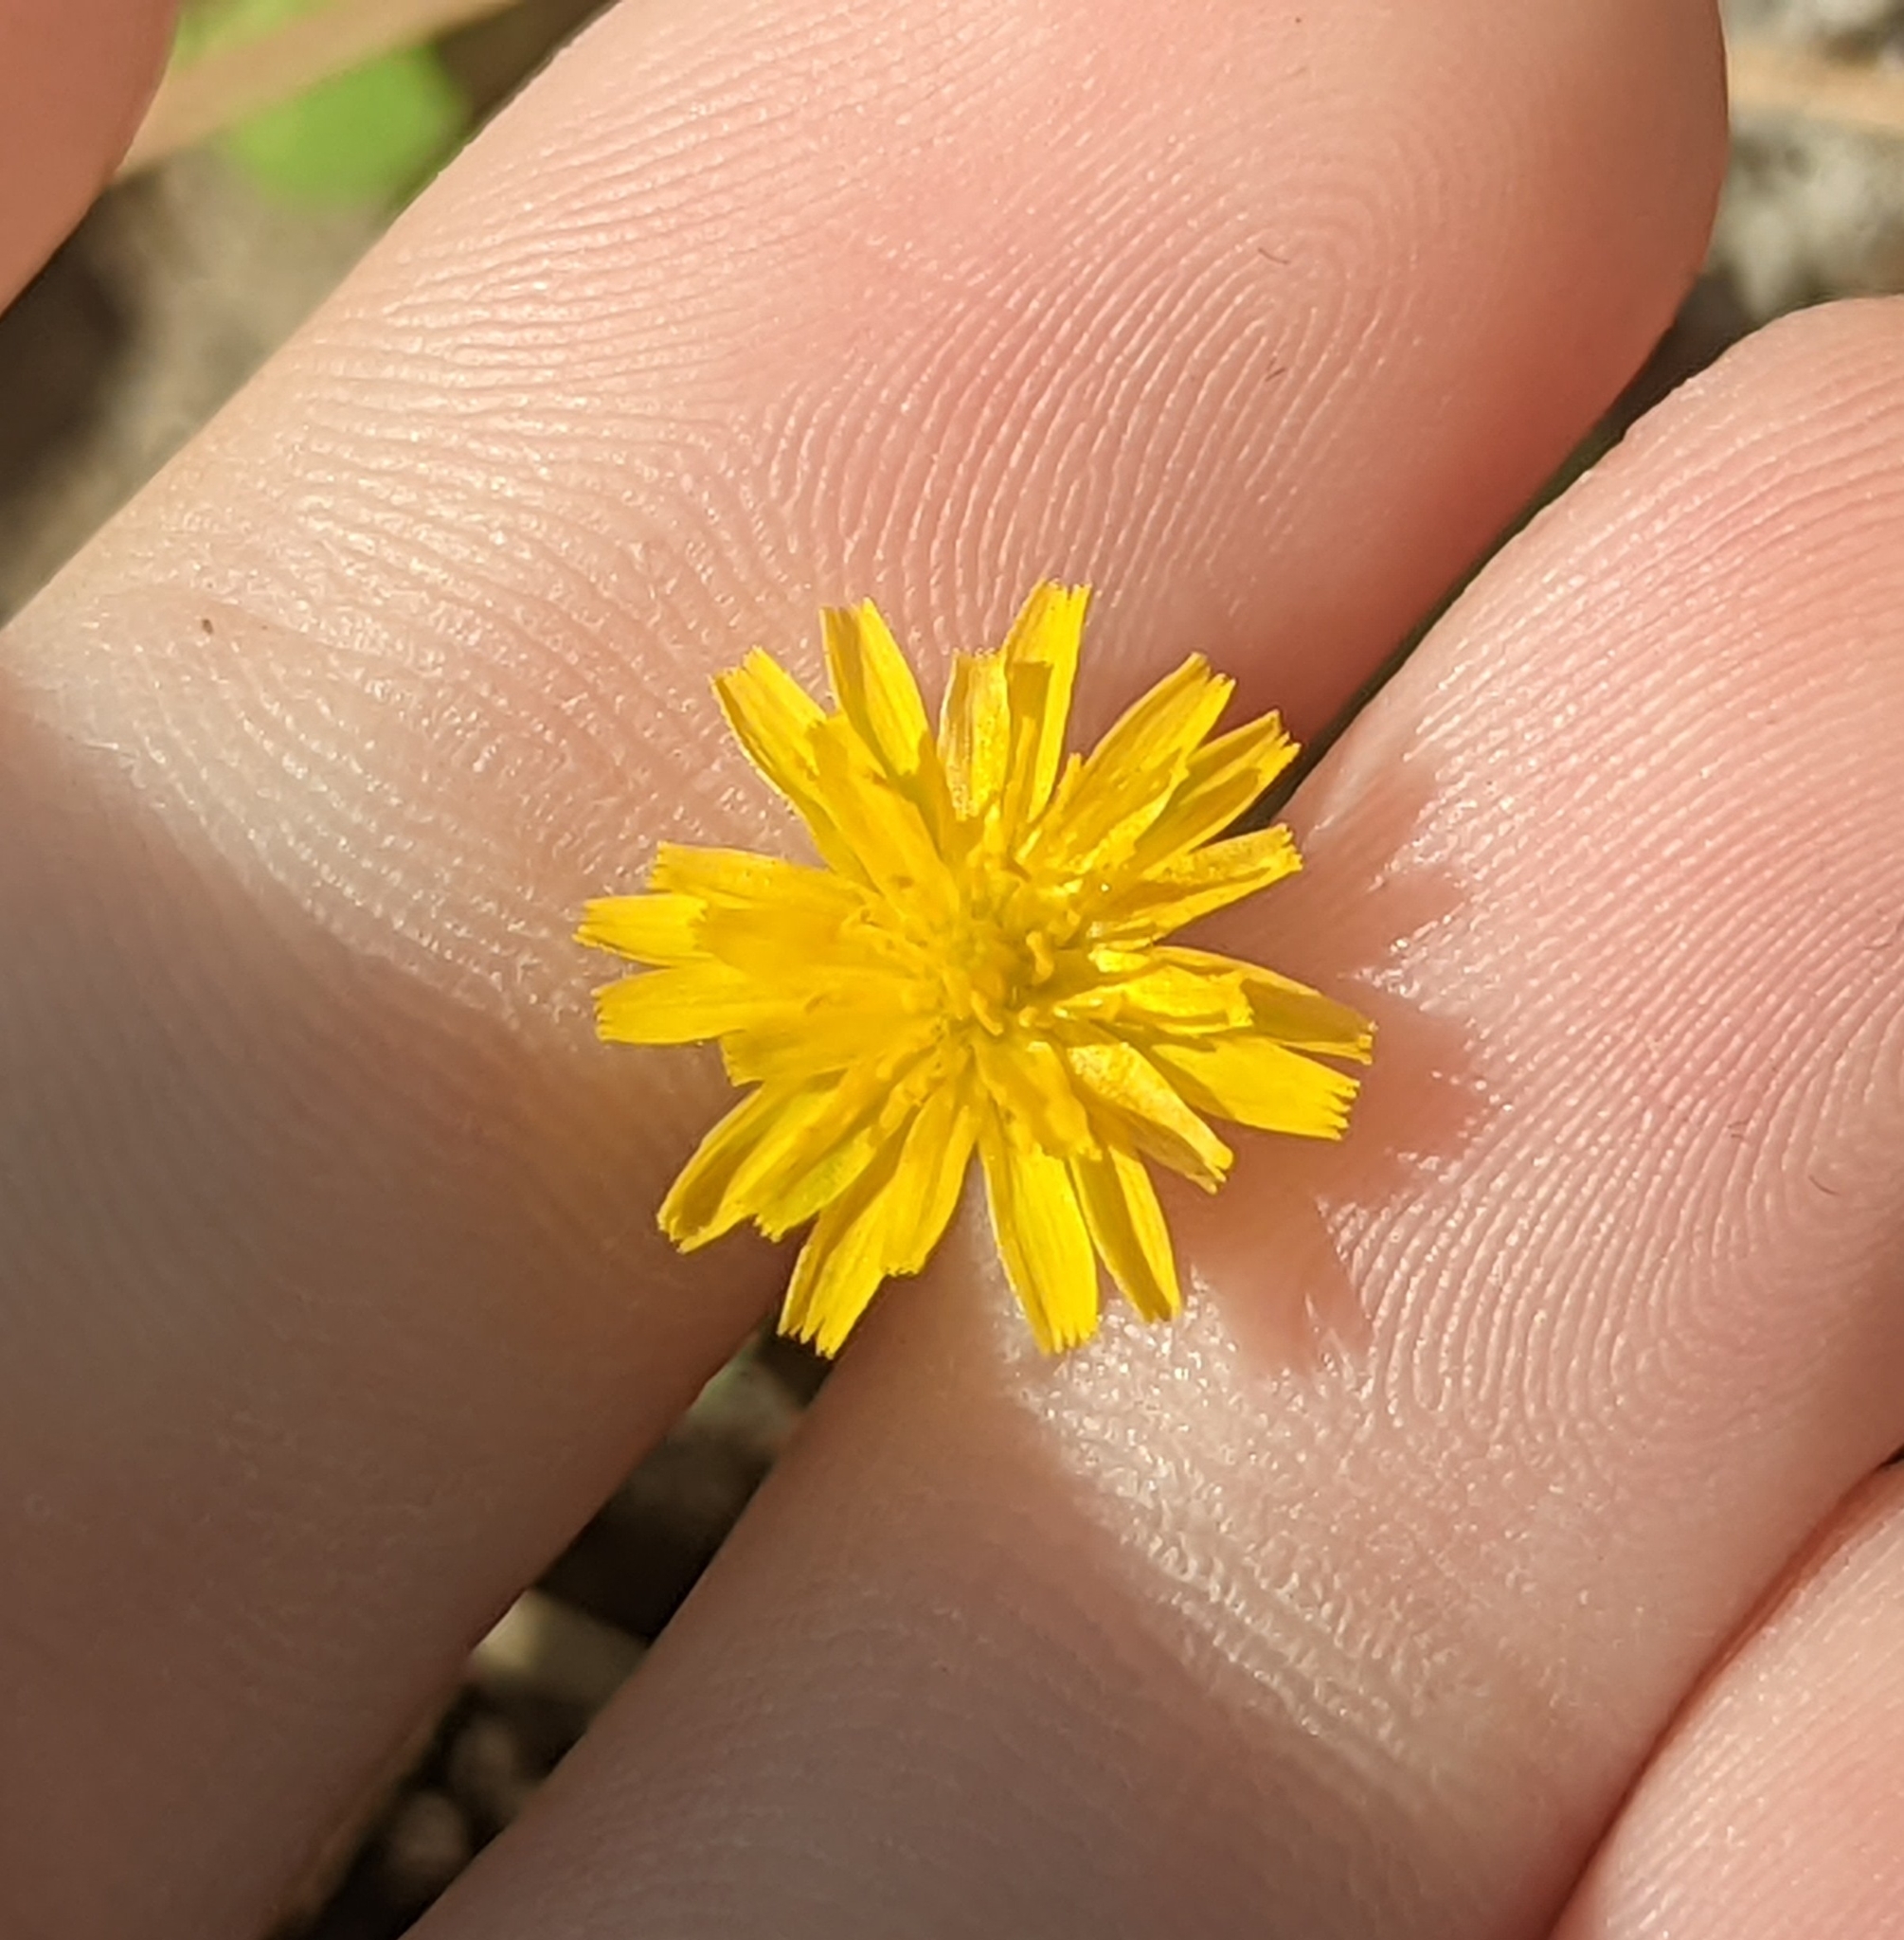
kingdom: Plantae
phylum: Tracheophyta
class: Magnoliopsida
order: Asterales
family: Asteraceae
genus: Krigia
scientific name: Krigia virginica
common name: Virginia dwarf-dandelion
